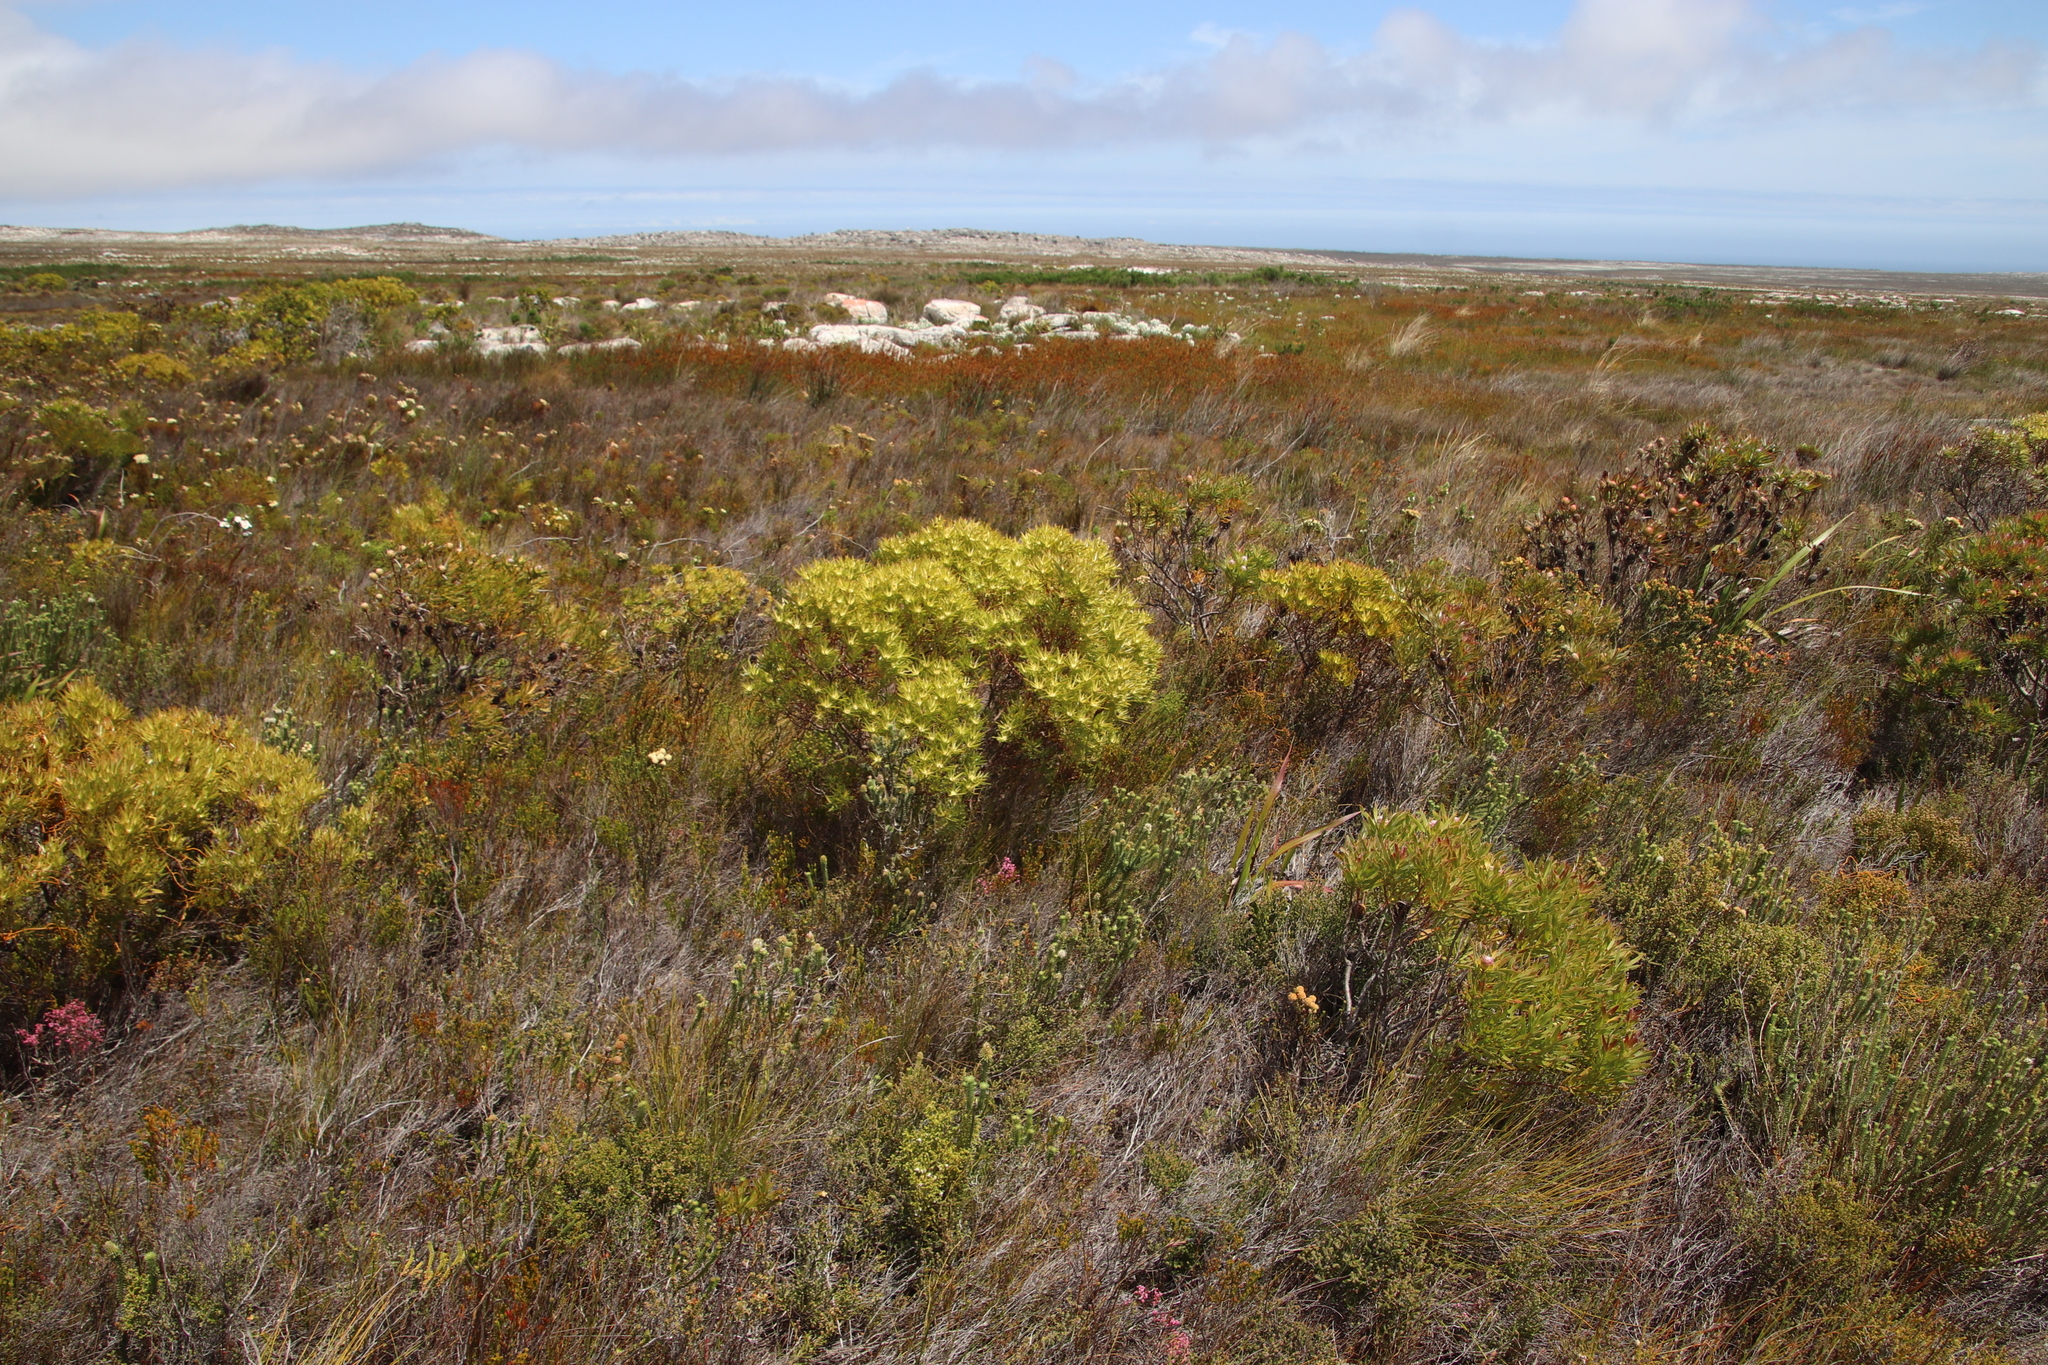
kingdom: Plantae
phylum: Tracheophyta
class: Magnoliopsida
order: Proteales
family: Proteaceae
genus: Leucadendron
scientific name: Leucadendron xanthoconus
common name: Sickle-leaf conebush
